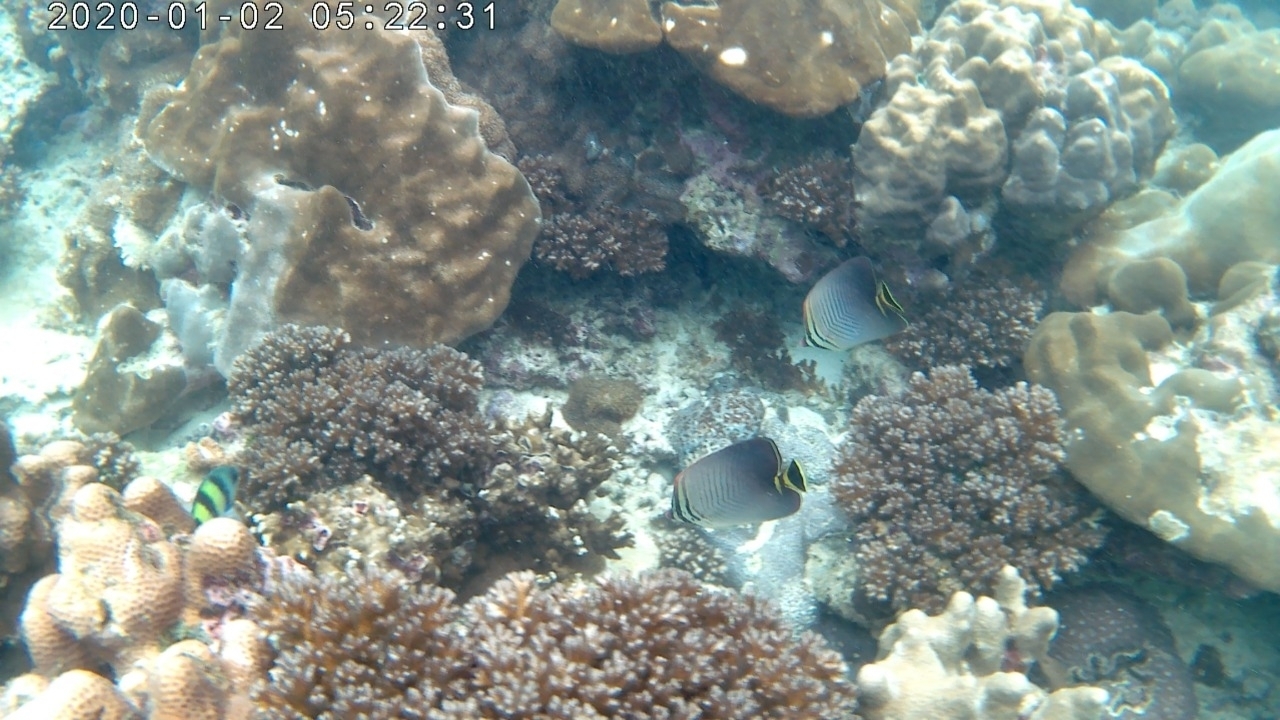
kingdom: Animalia
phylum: Chordata
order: Perciformes
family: Chaetodontidae
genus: Chaetodon
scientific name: Chaetodon triangulum
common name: Triangular butterflyfish
